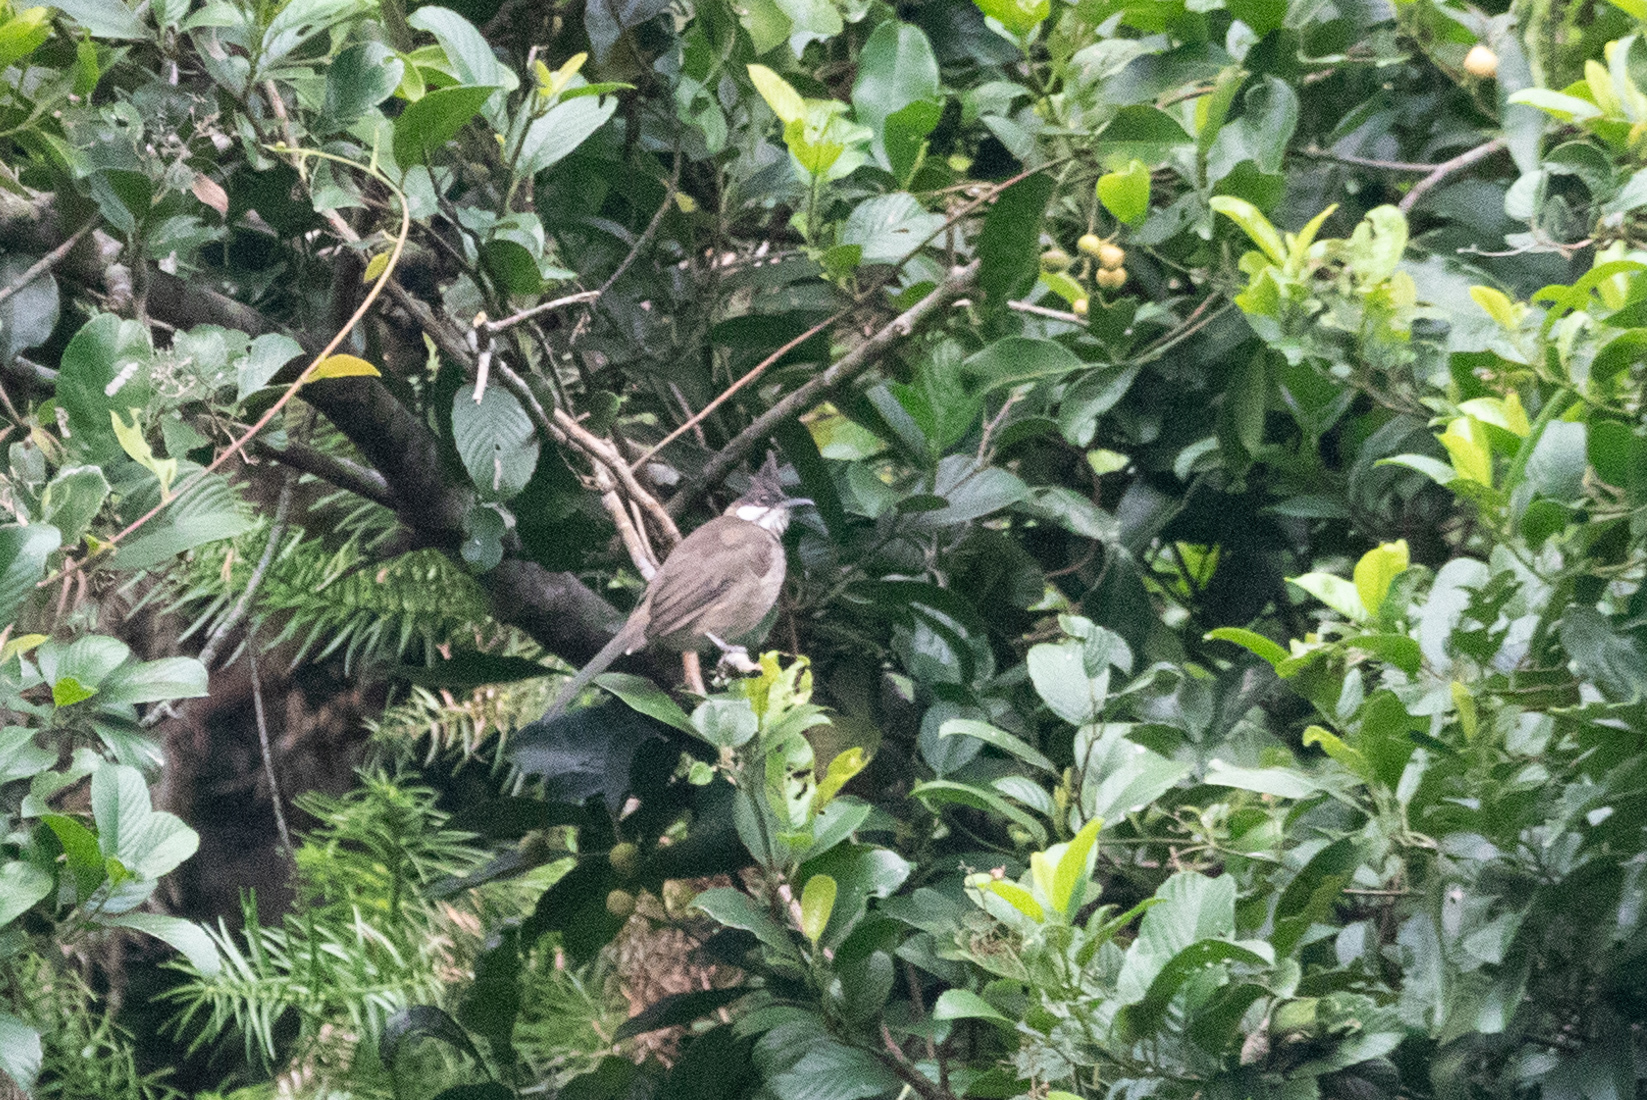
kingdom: Animalia
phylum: Chordata
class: Aves
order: Passeriformes
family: Pycnonotidae
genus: Pycnonotus
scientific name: Pycnonotus jocosus
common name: Red-whiskered bulbul
